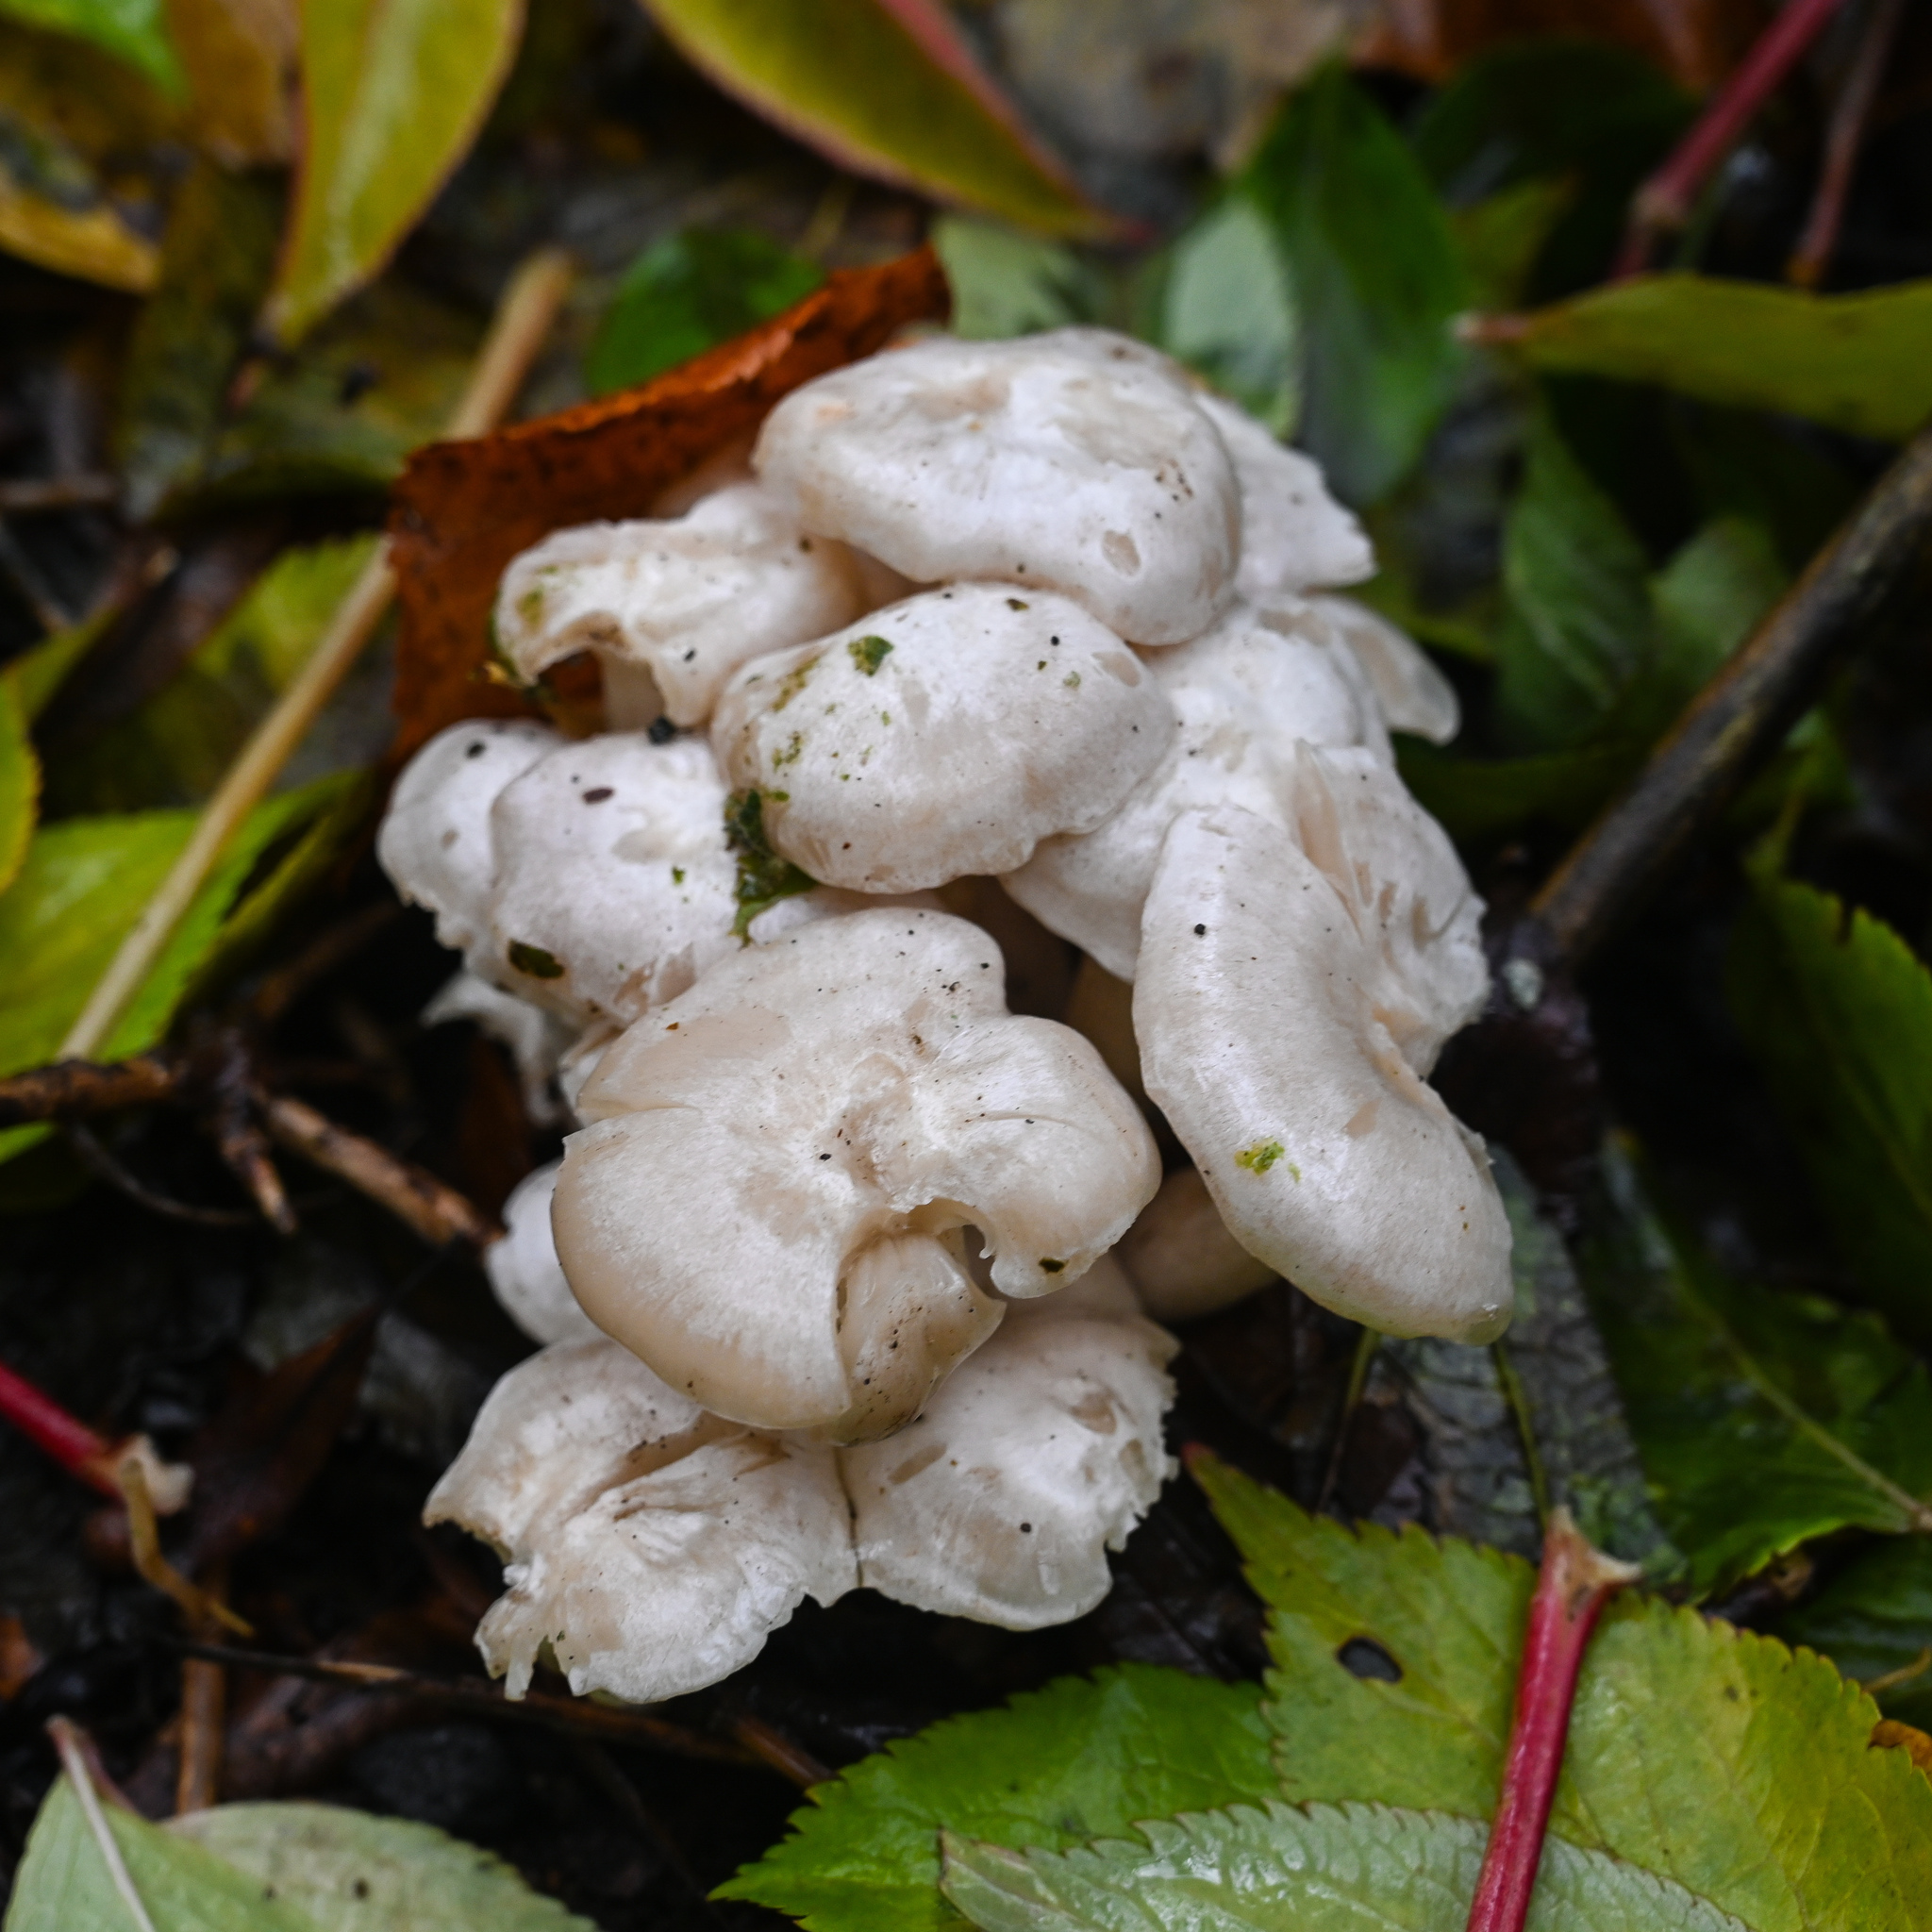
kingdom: Fungi
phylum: Basidiomycota
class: Agaricomycetes
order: Agaricales
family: Tricholomataceae
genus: Leucocybe
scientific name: Leucocybe connata
